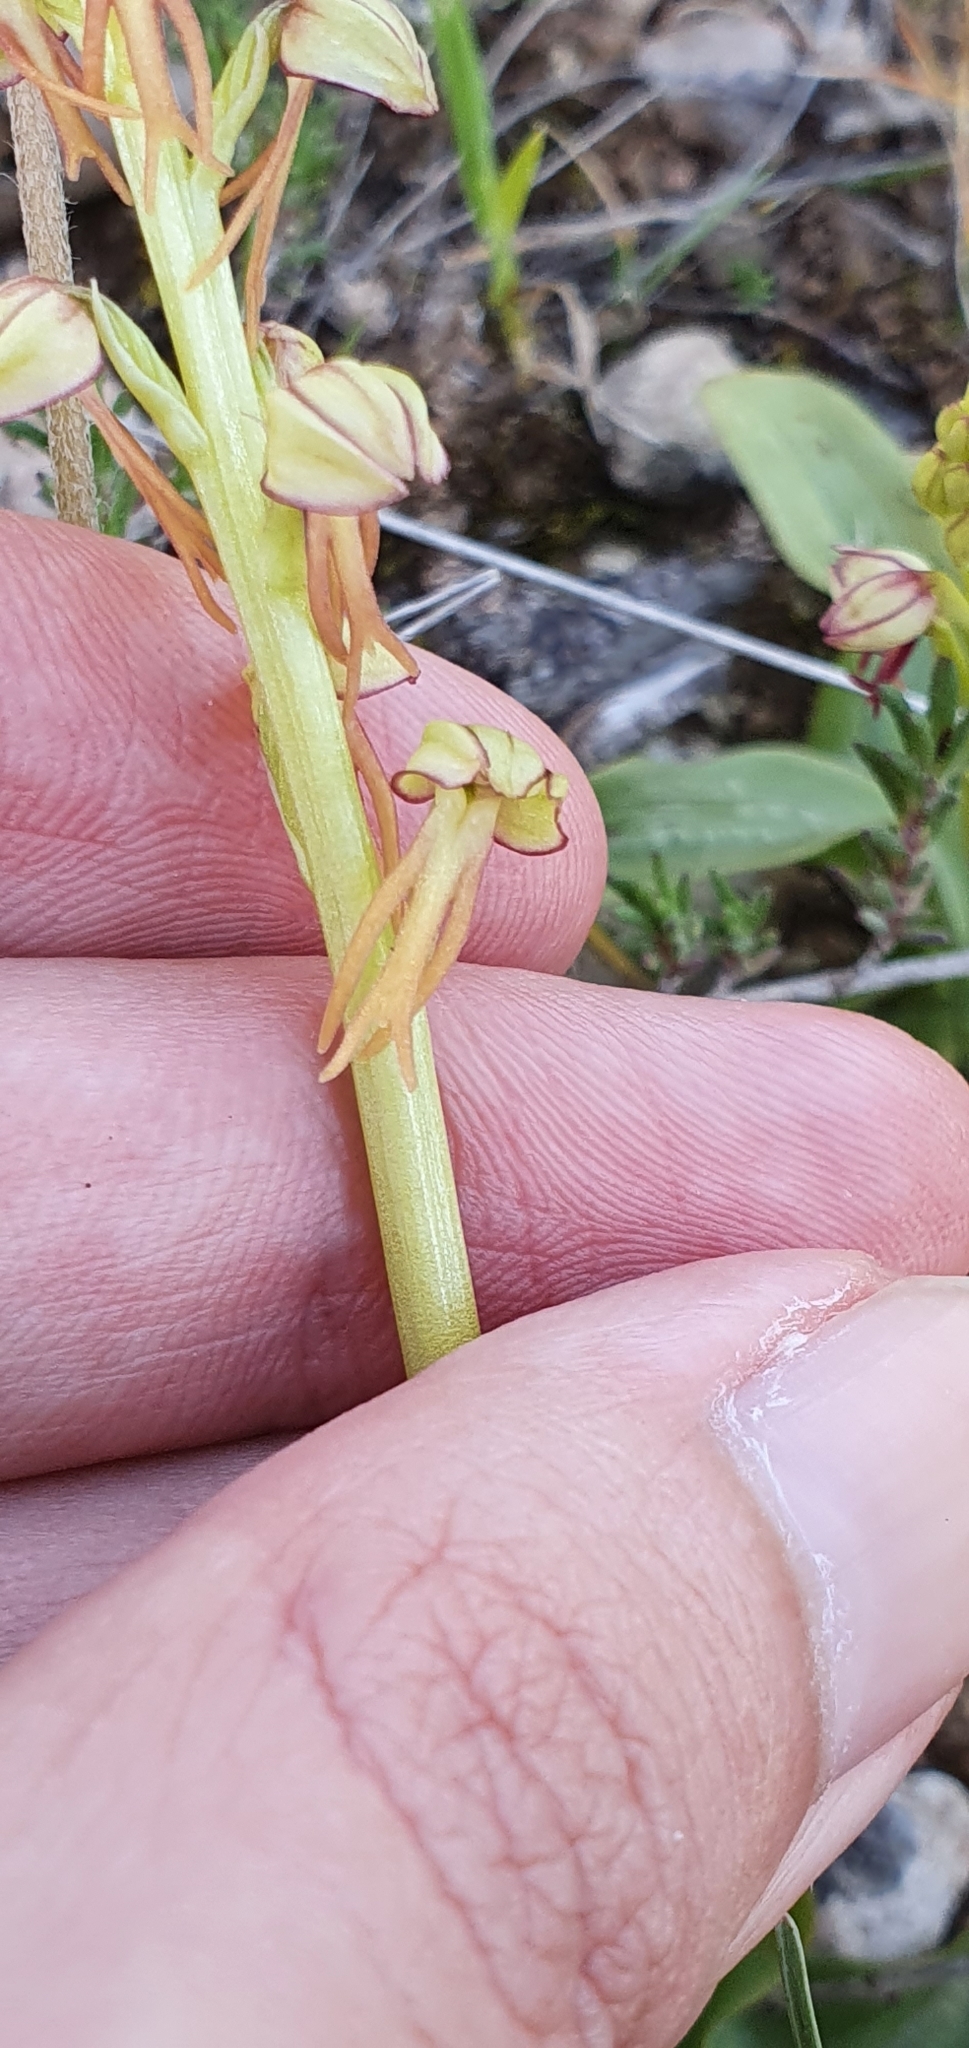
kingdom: Plantae
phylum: Tracheophyta
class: Liliopsida
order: Asparagales
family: Orchidaceae
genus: Orchis
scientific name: Orchis anthropophora
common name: Man orchid
